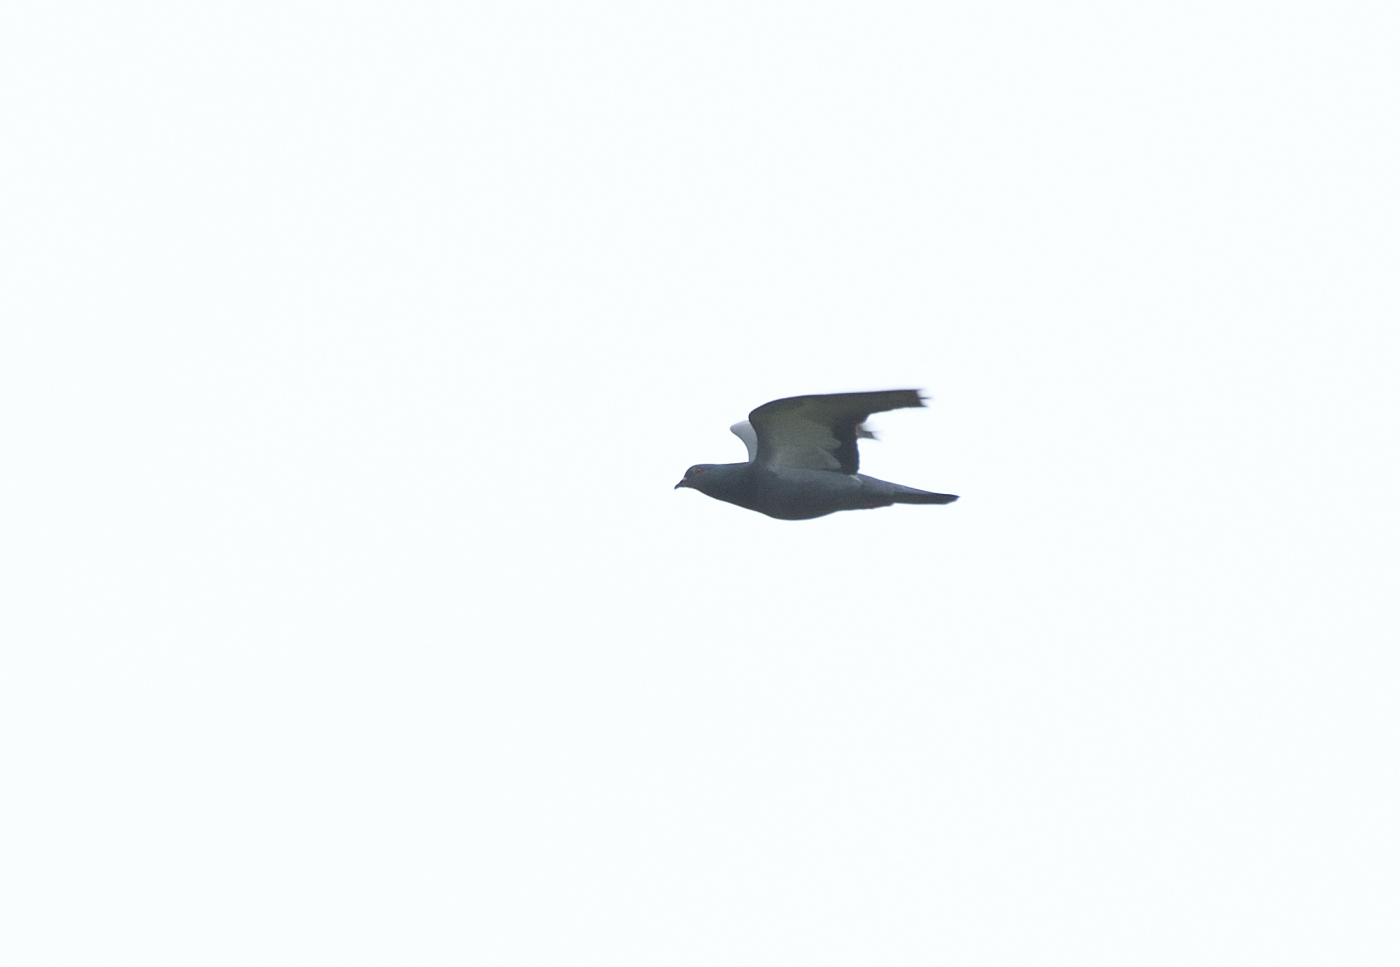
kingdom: Animalia
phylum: Chordata
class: Aves
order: Columbiformes
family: Columbidae
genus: Columba
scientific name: Columba livia
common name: Rock pigeon
